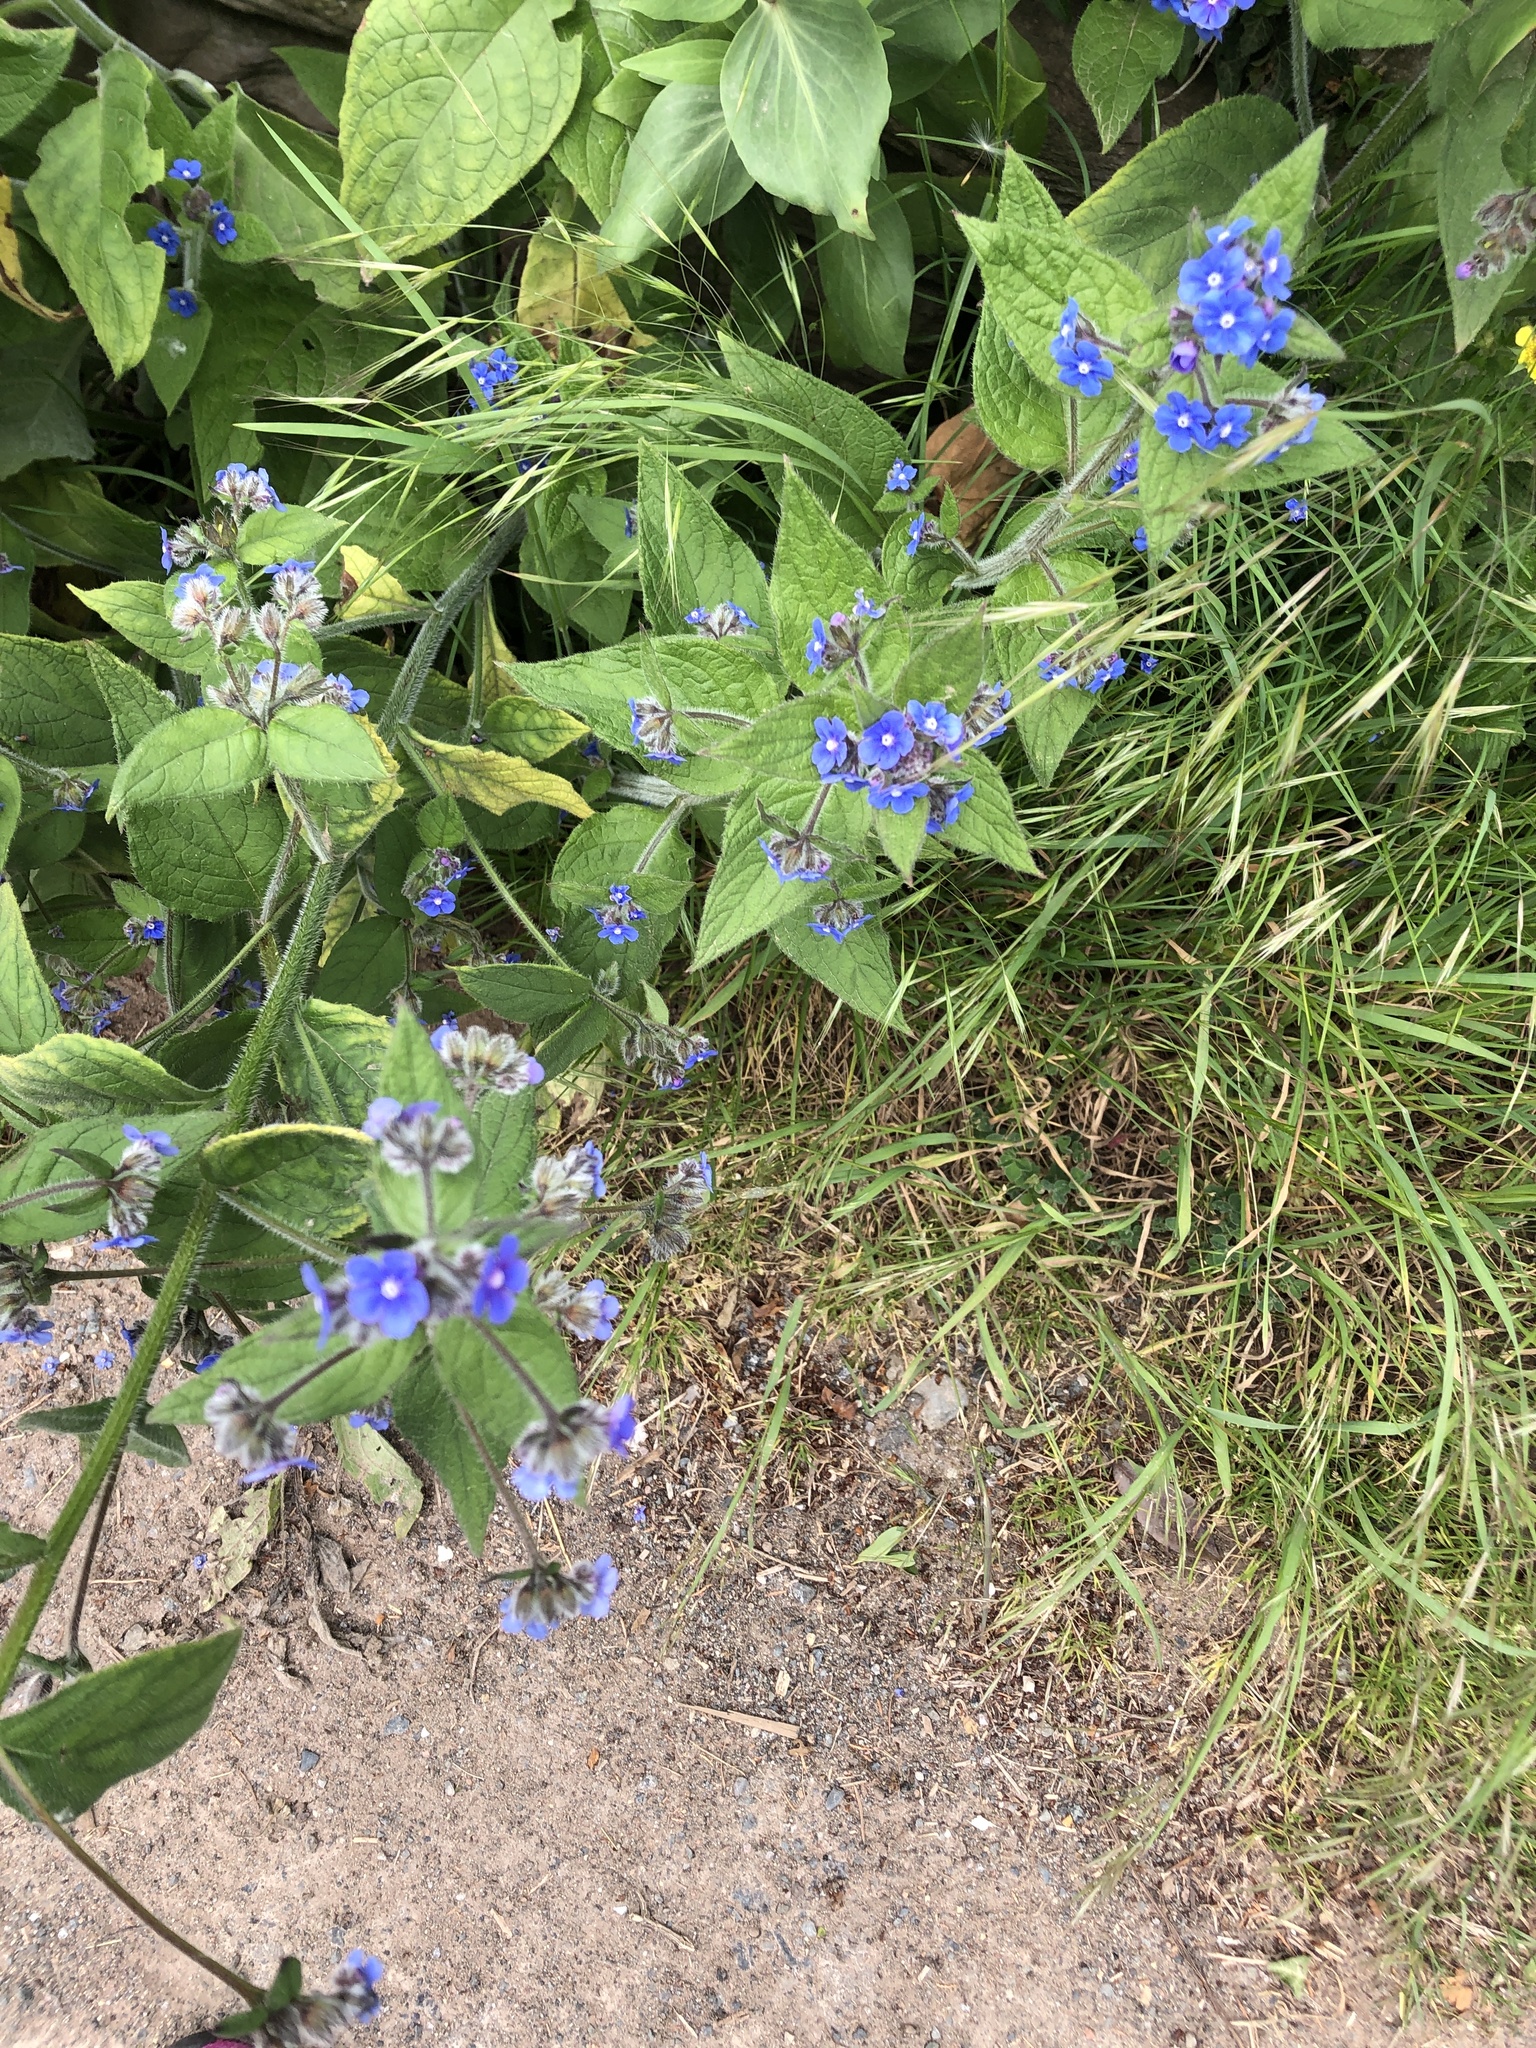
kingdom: Plantae
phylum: Tracheophyta
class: Magnoliopsida
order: Boraginales
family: Boraginaceae
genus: Pentaglottis
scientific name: Pentaglottis sempervirens
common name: Green alkanet
